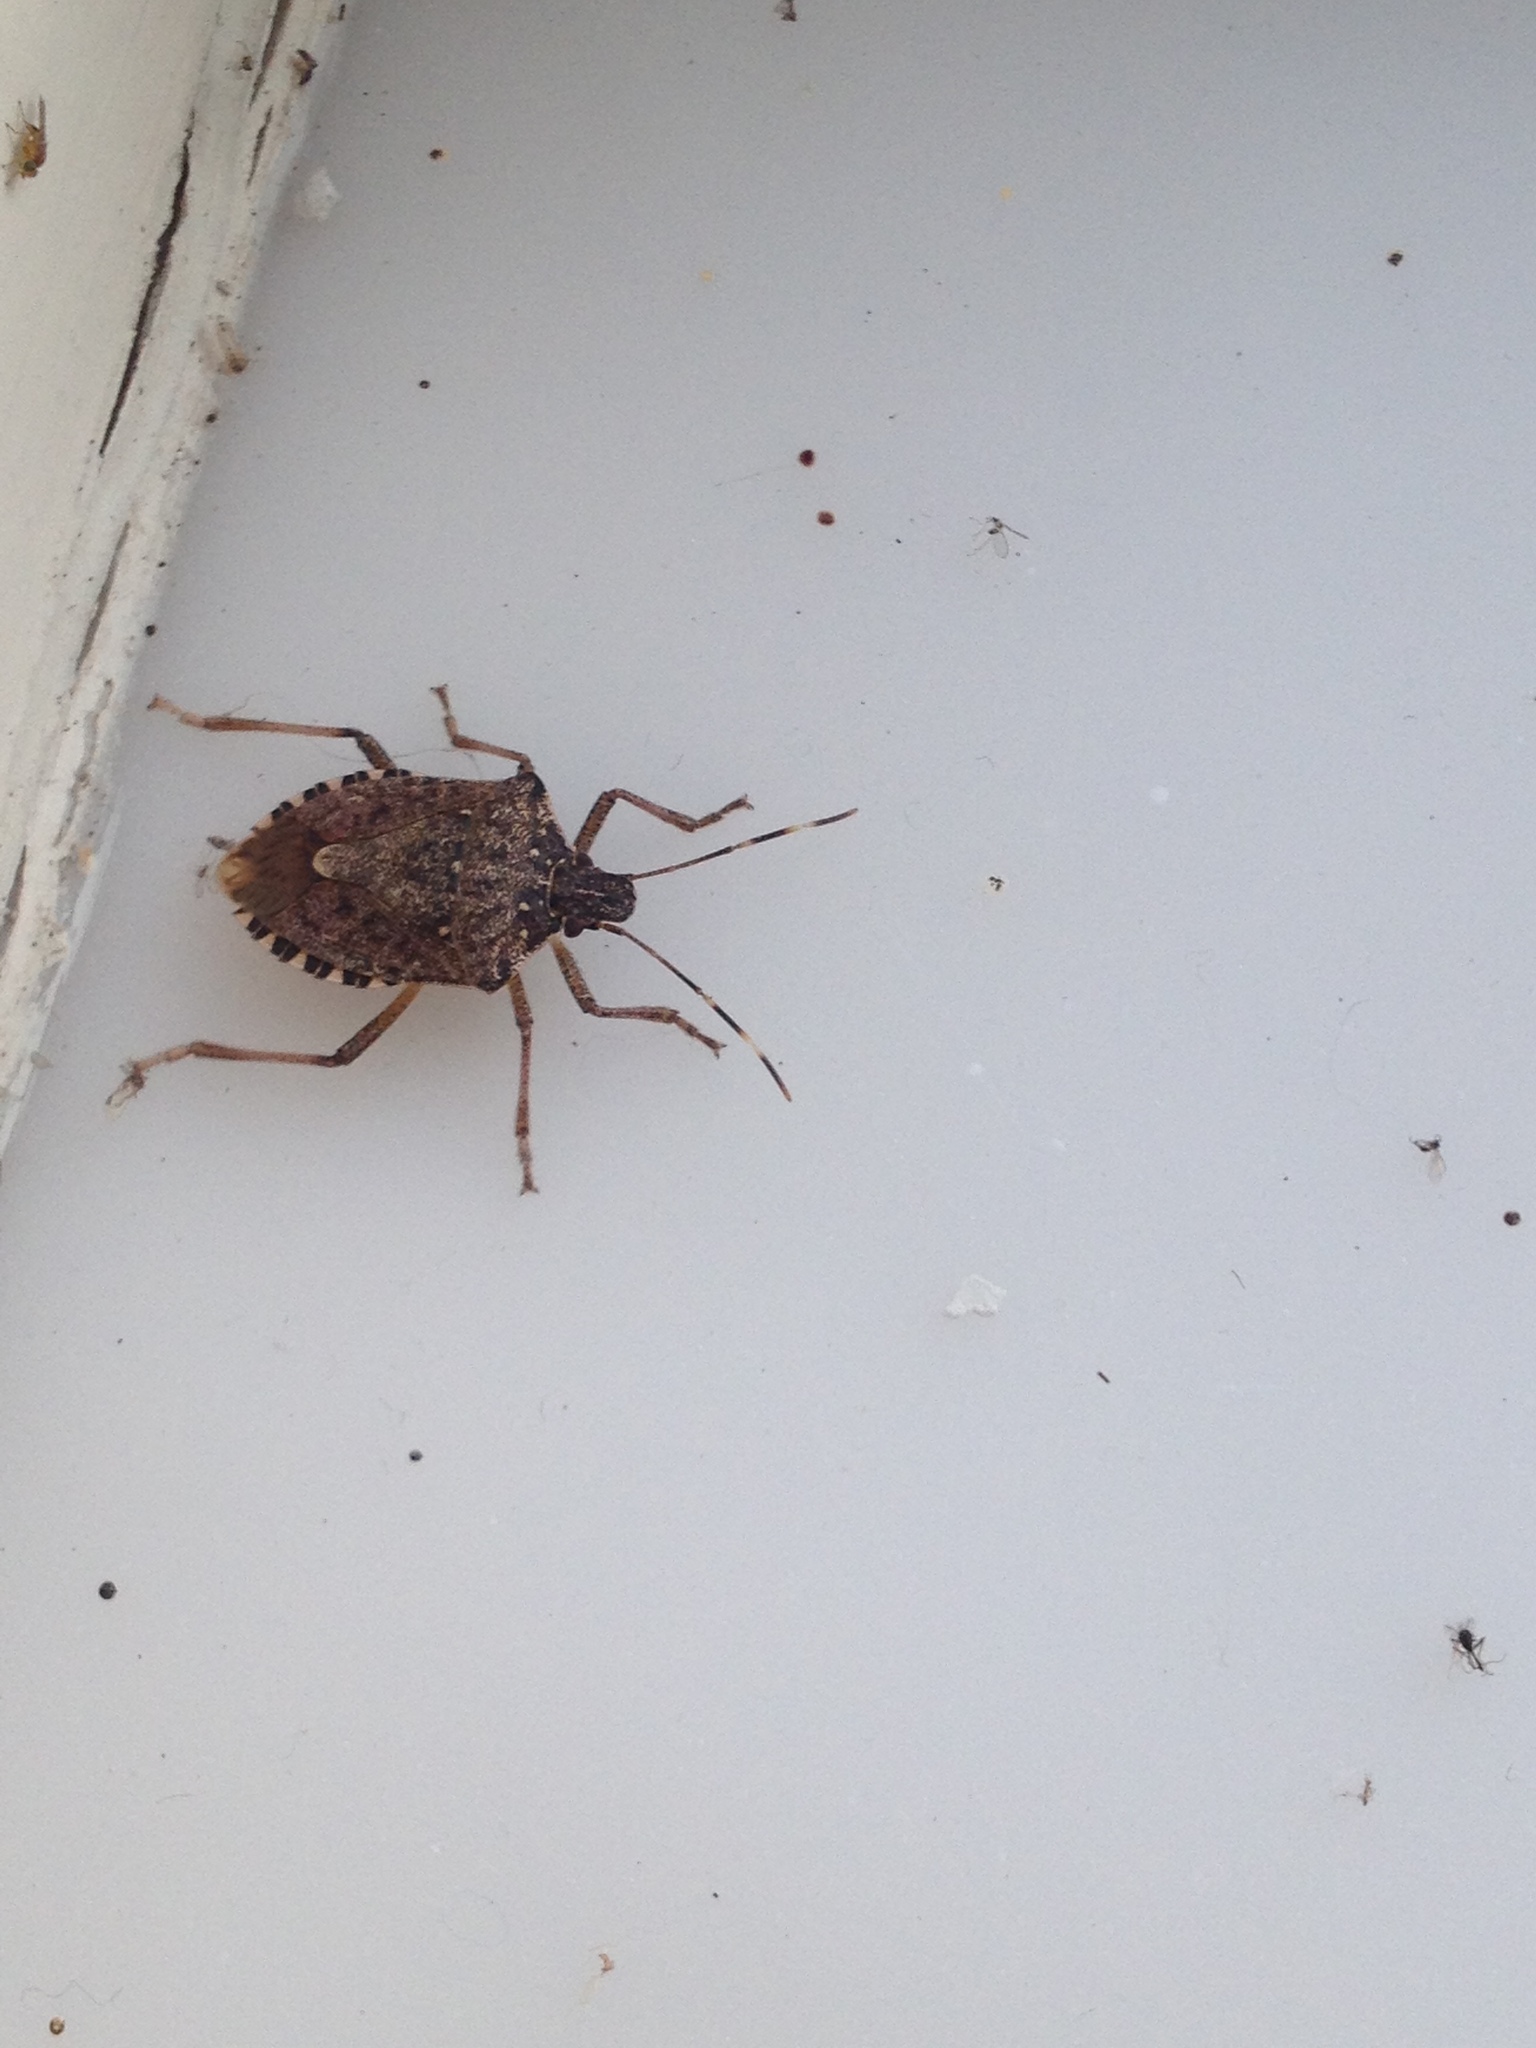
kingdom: Animalia
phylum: Arthropoda
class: Insecta
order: Hemiptera
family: Pentatomidae
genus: Halyomorpha
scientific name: Halyomorpha halys
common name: Brown marmorated stink bug
